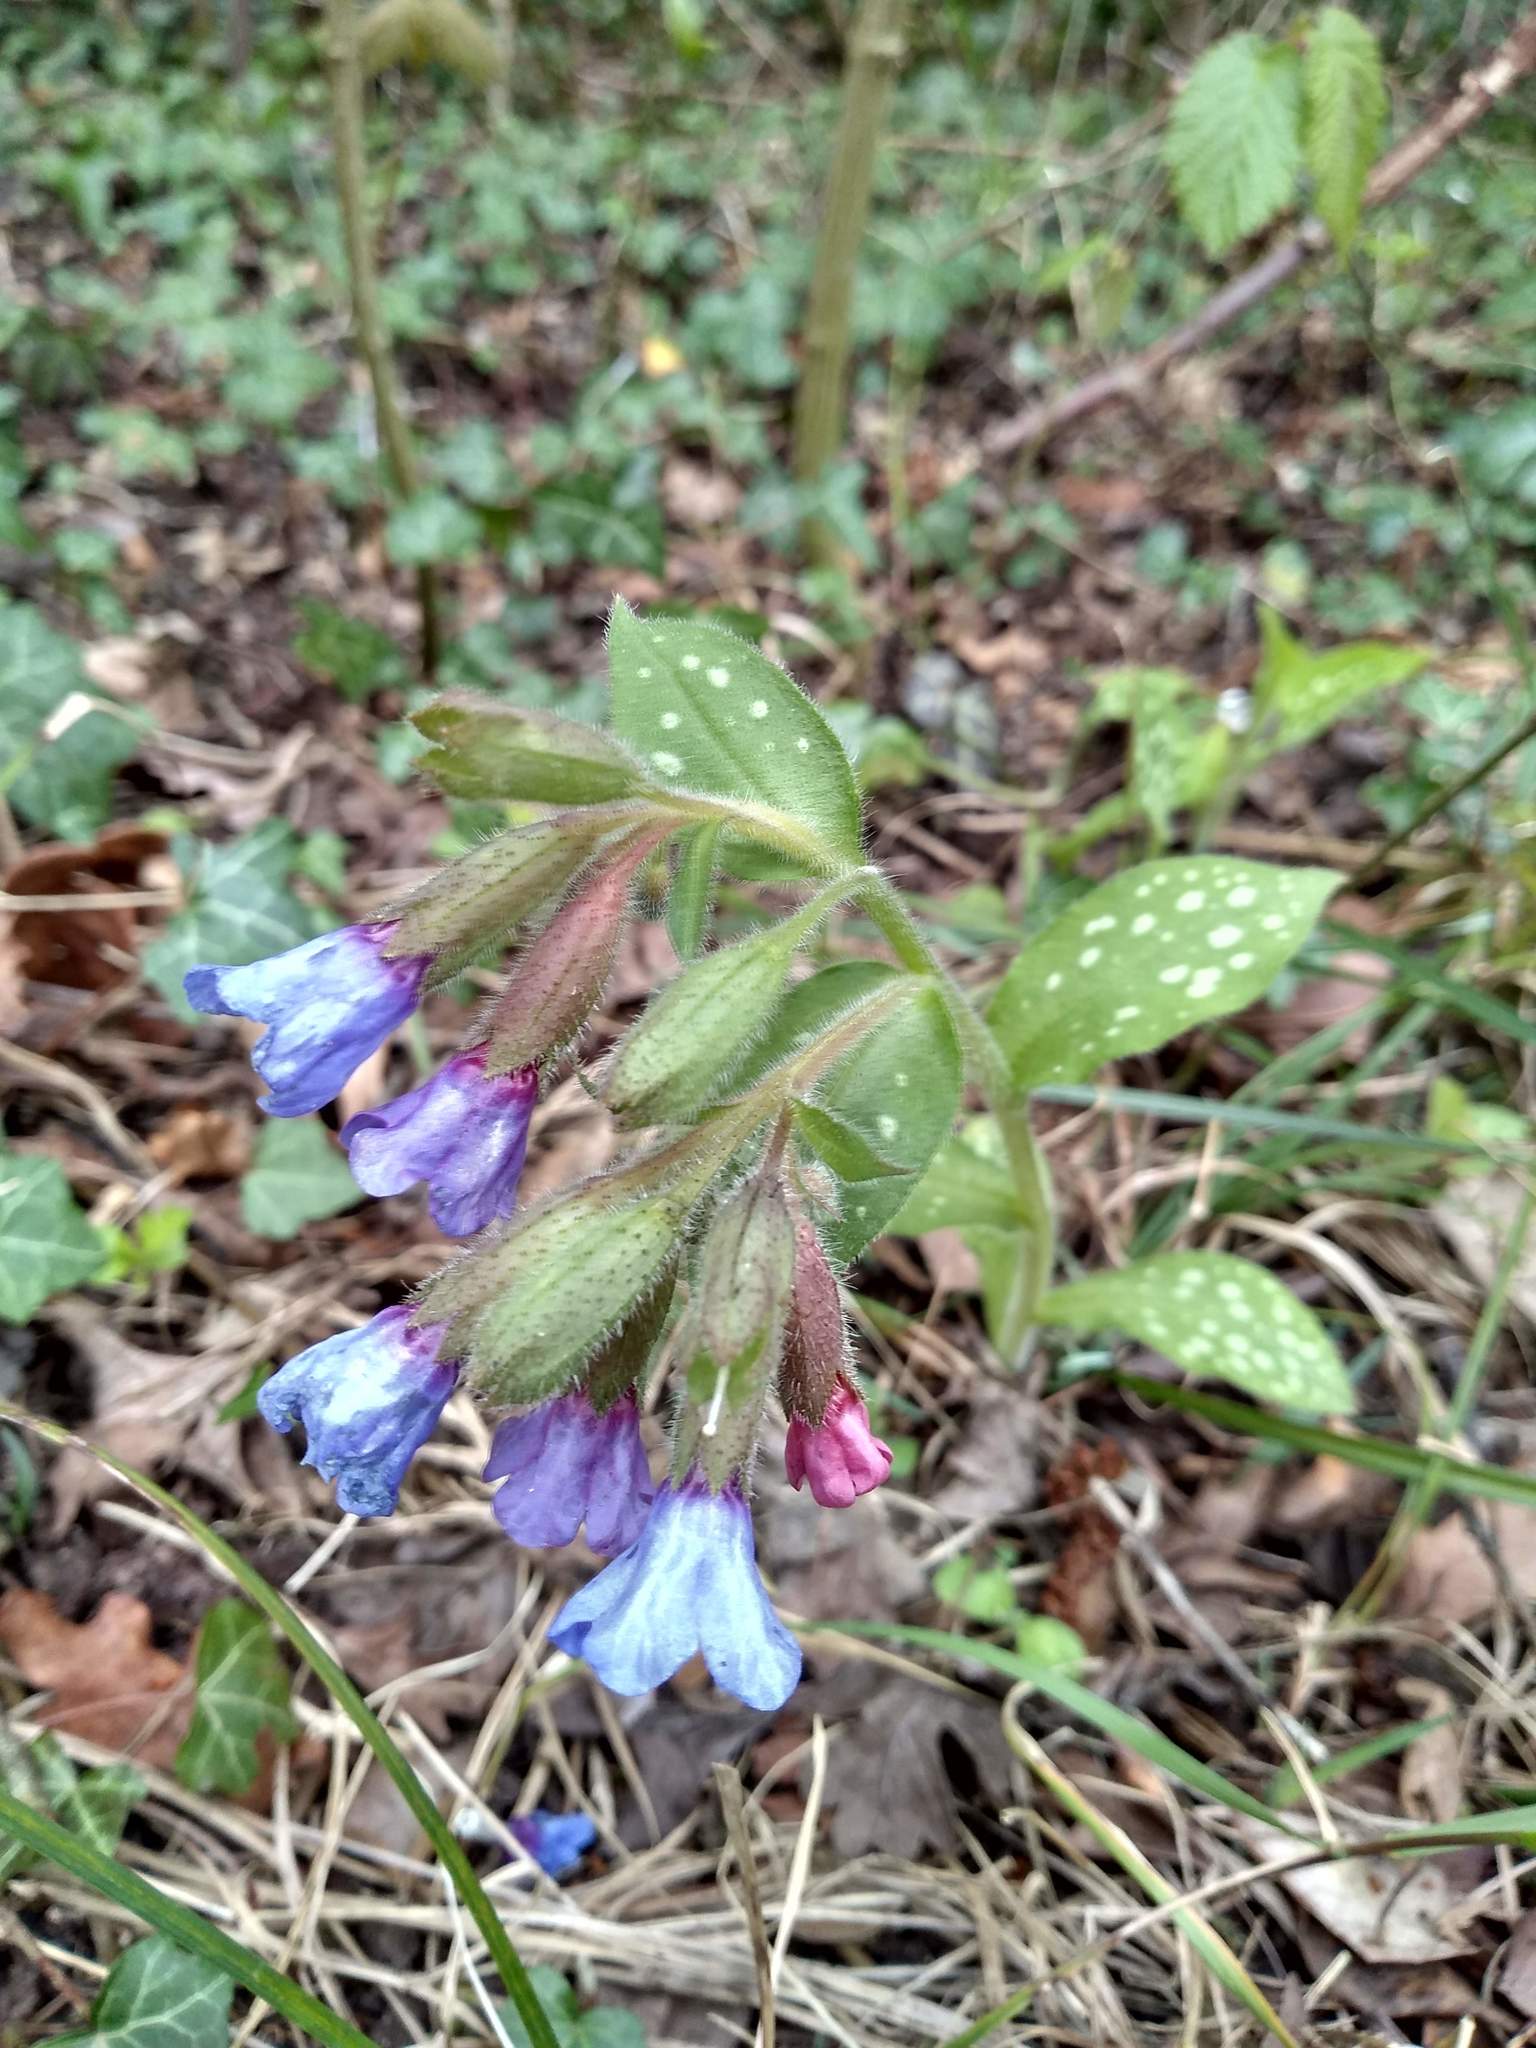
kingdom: Plantae
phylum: Tracheophyta
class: Magnoliopsida
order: Boraginales
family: Boraginaceae
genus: Pulmonaria
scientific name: Pulmonaria officinalis
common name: Lungwort
